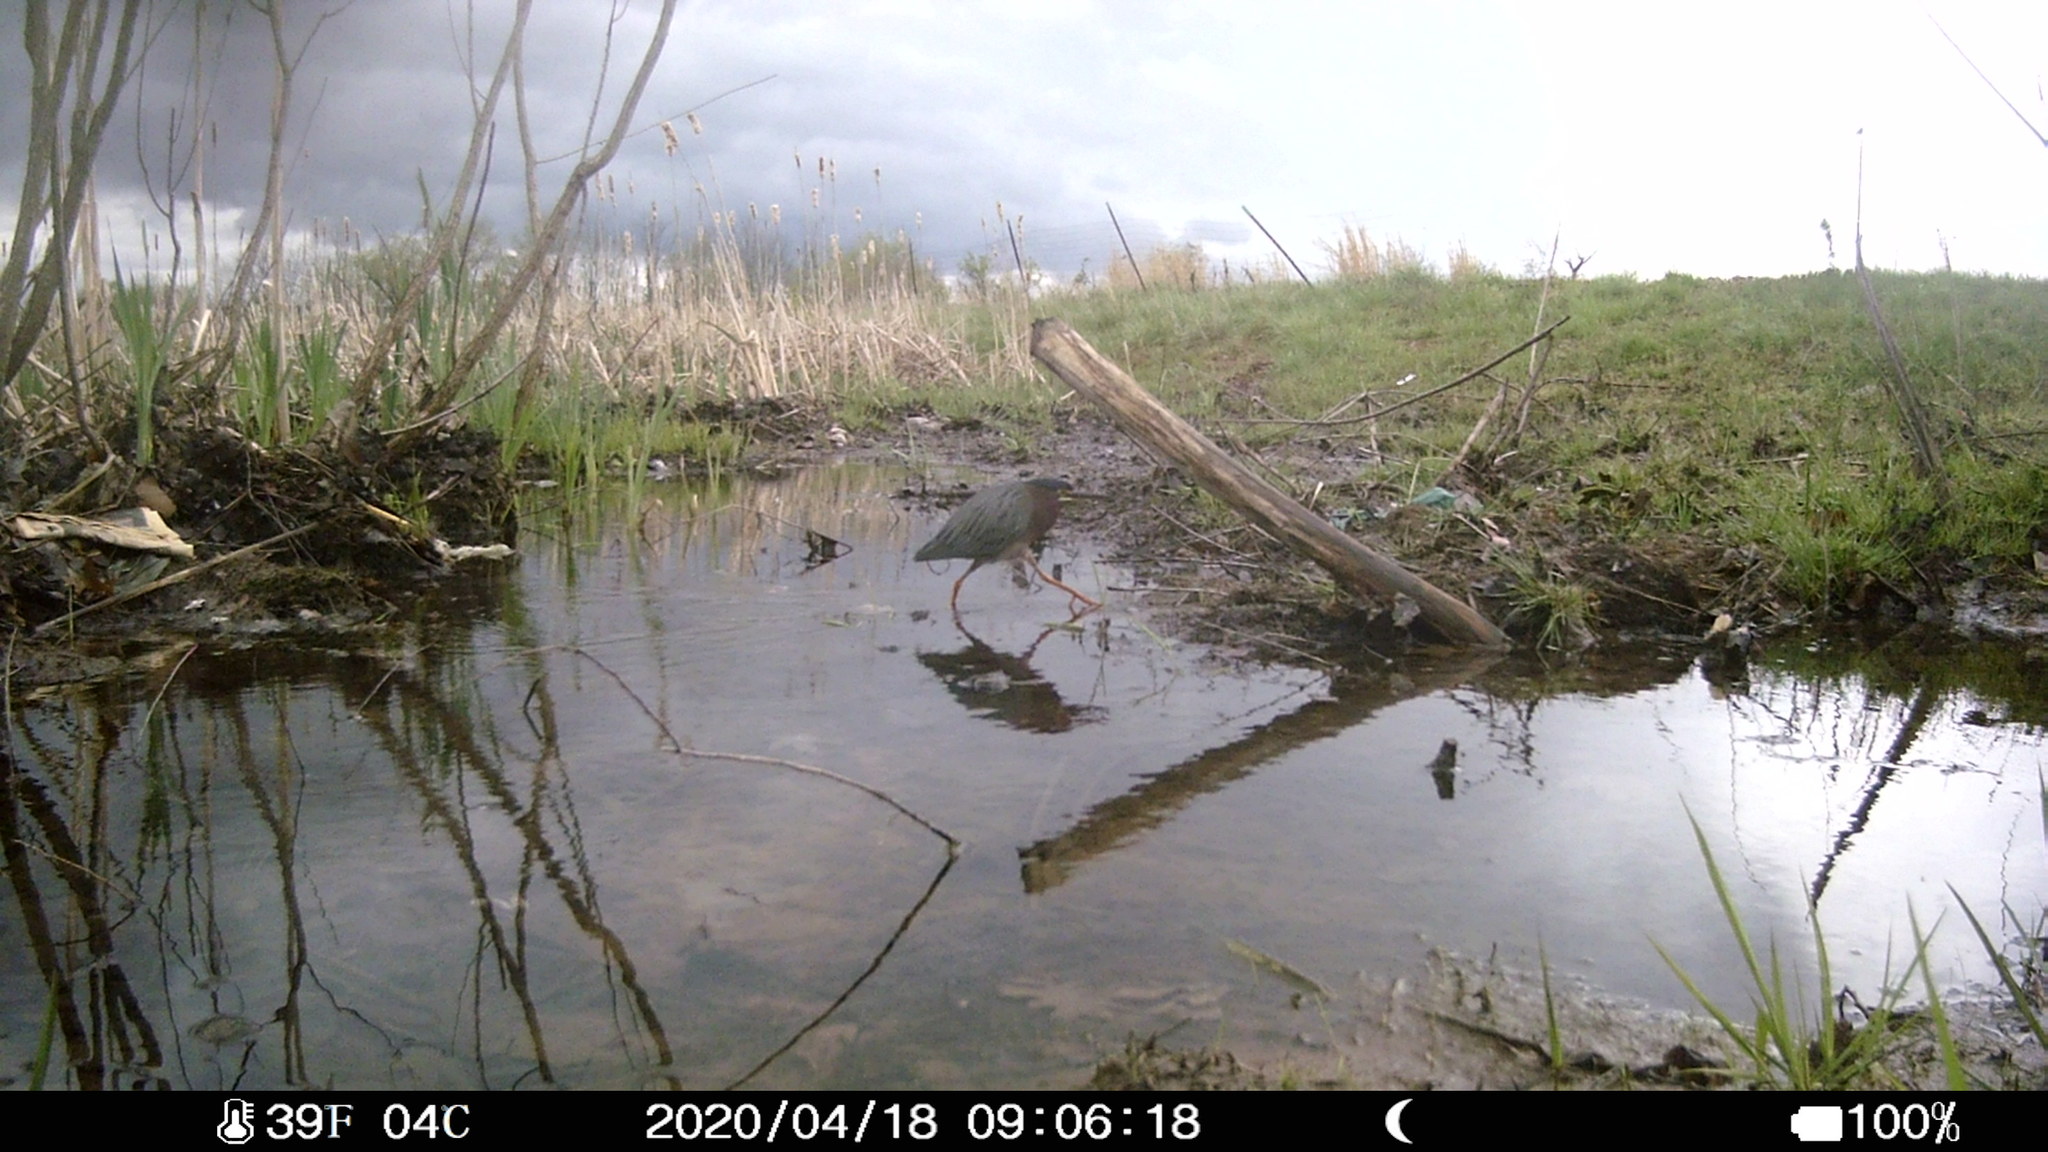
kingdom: Animalia
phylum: Chordata
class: Aves
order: Pelecaniformes
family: Ardeidae
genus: Butorides
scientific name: Butorides virescens
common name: Green heron
